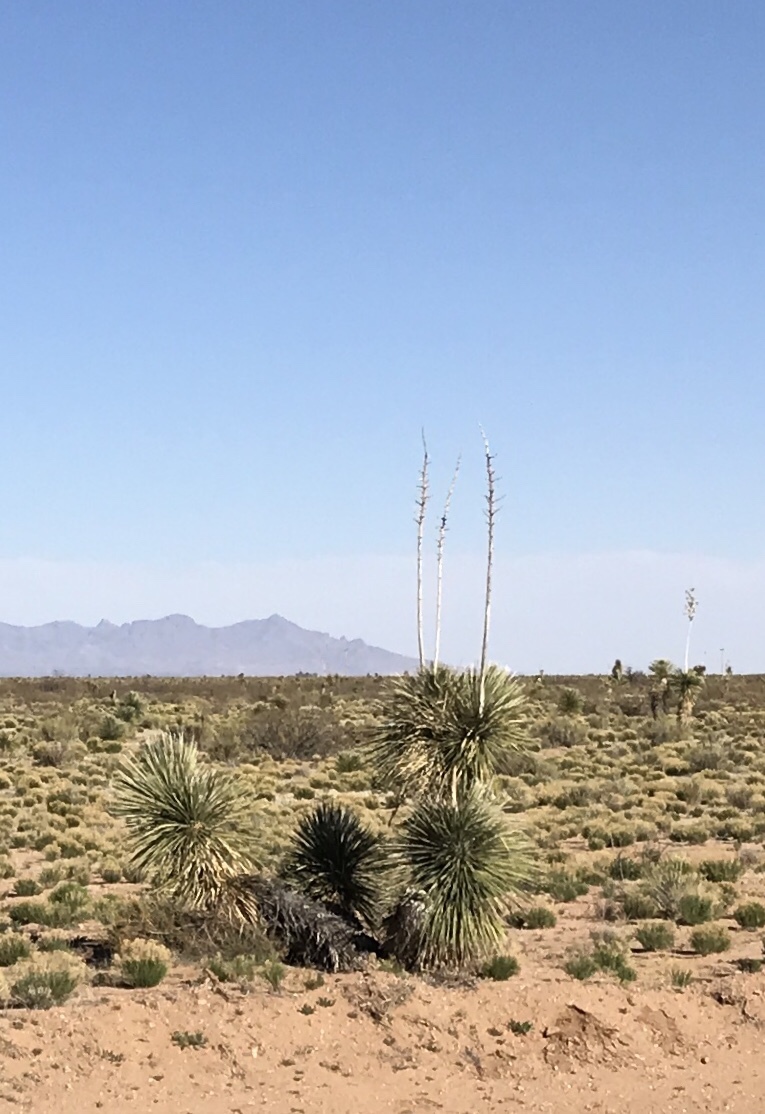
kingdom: Plantae
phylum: Tracheophyta
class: Liliopsida
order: Asparagales
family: Asparagaceae
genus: Yucca
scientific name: Yucca elata
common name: Palmella
